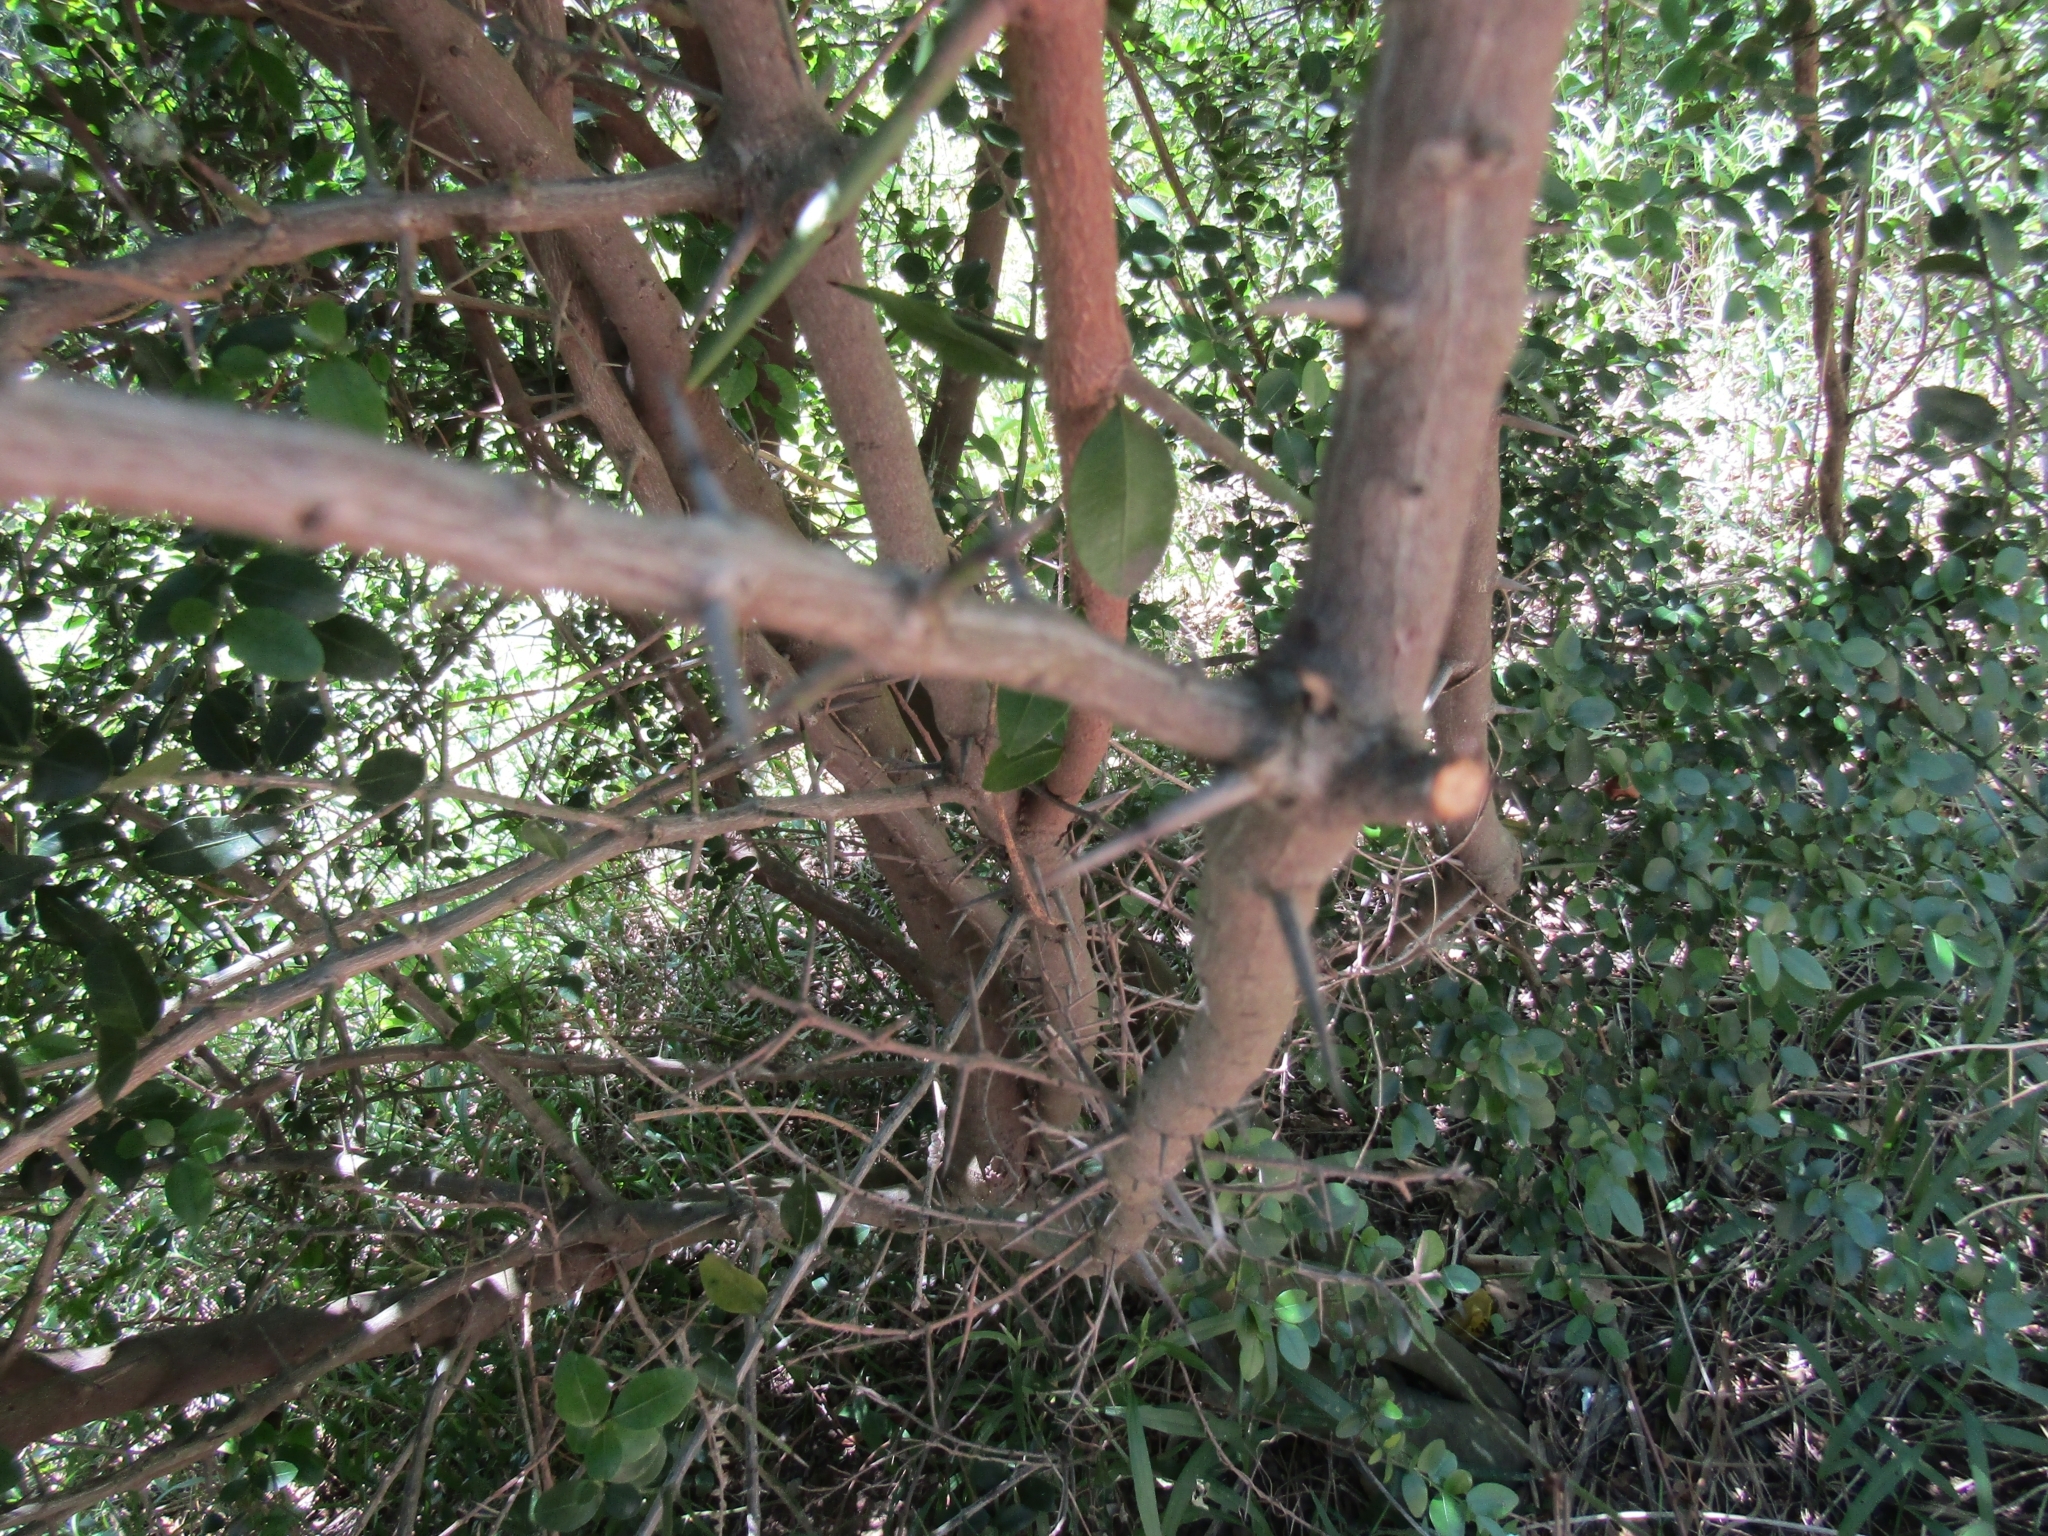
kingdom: Plantae
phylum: Tracheophyta
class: Magnoliopsida
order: Rosales
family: Rhamnaceae
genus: Scutia
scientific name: Scutia buxifolia
